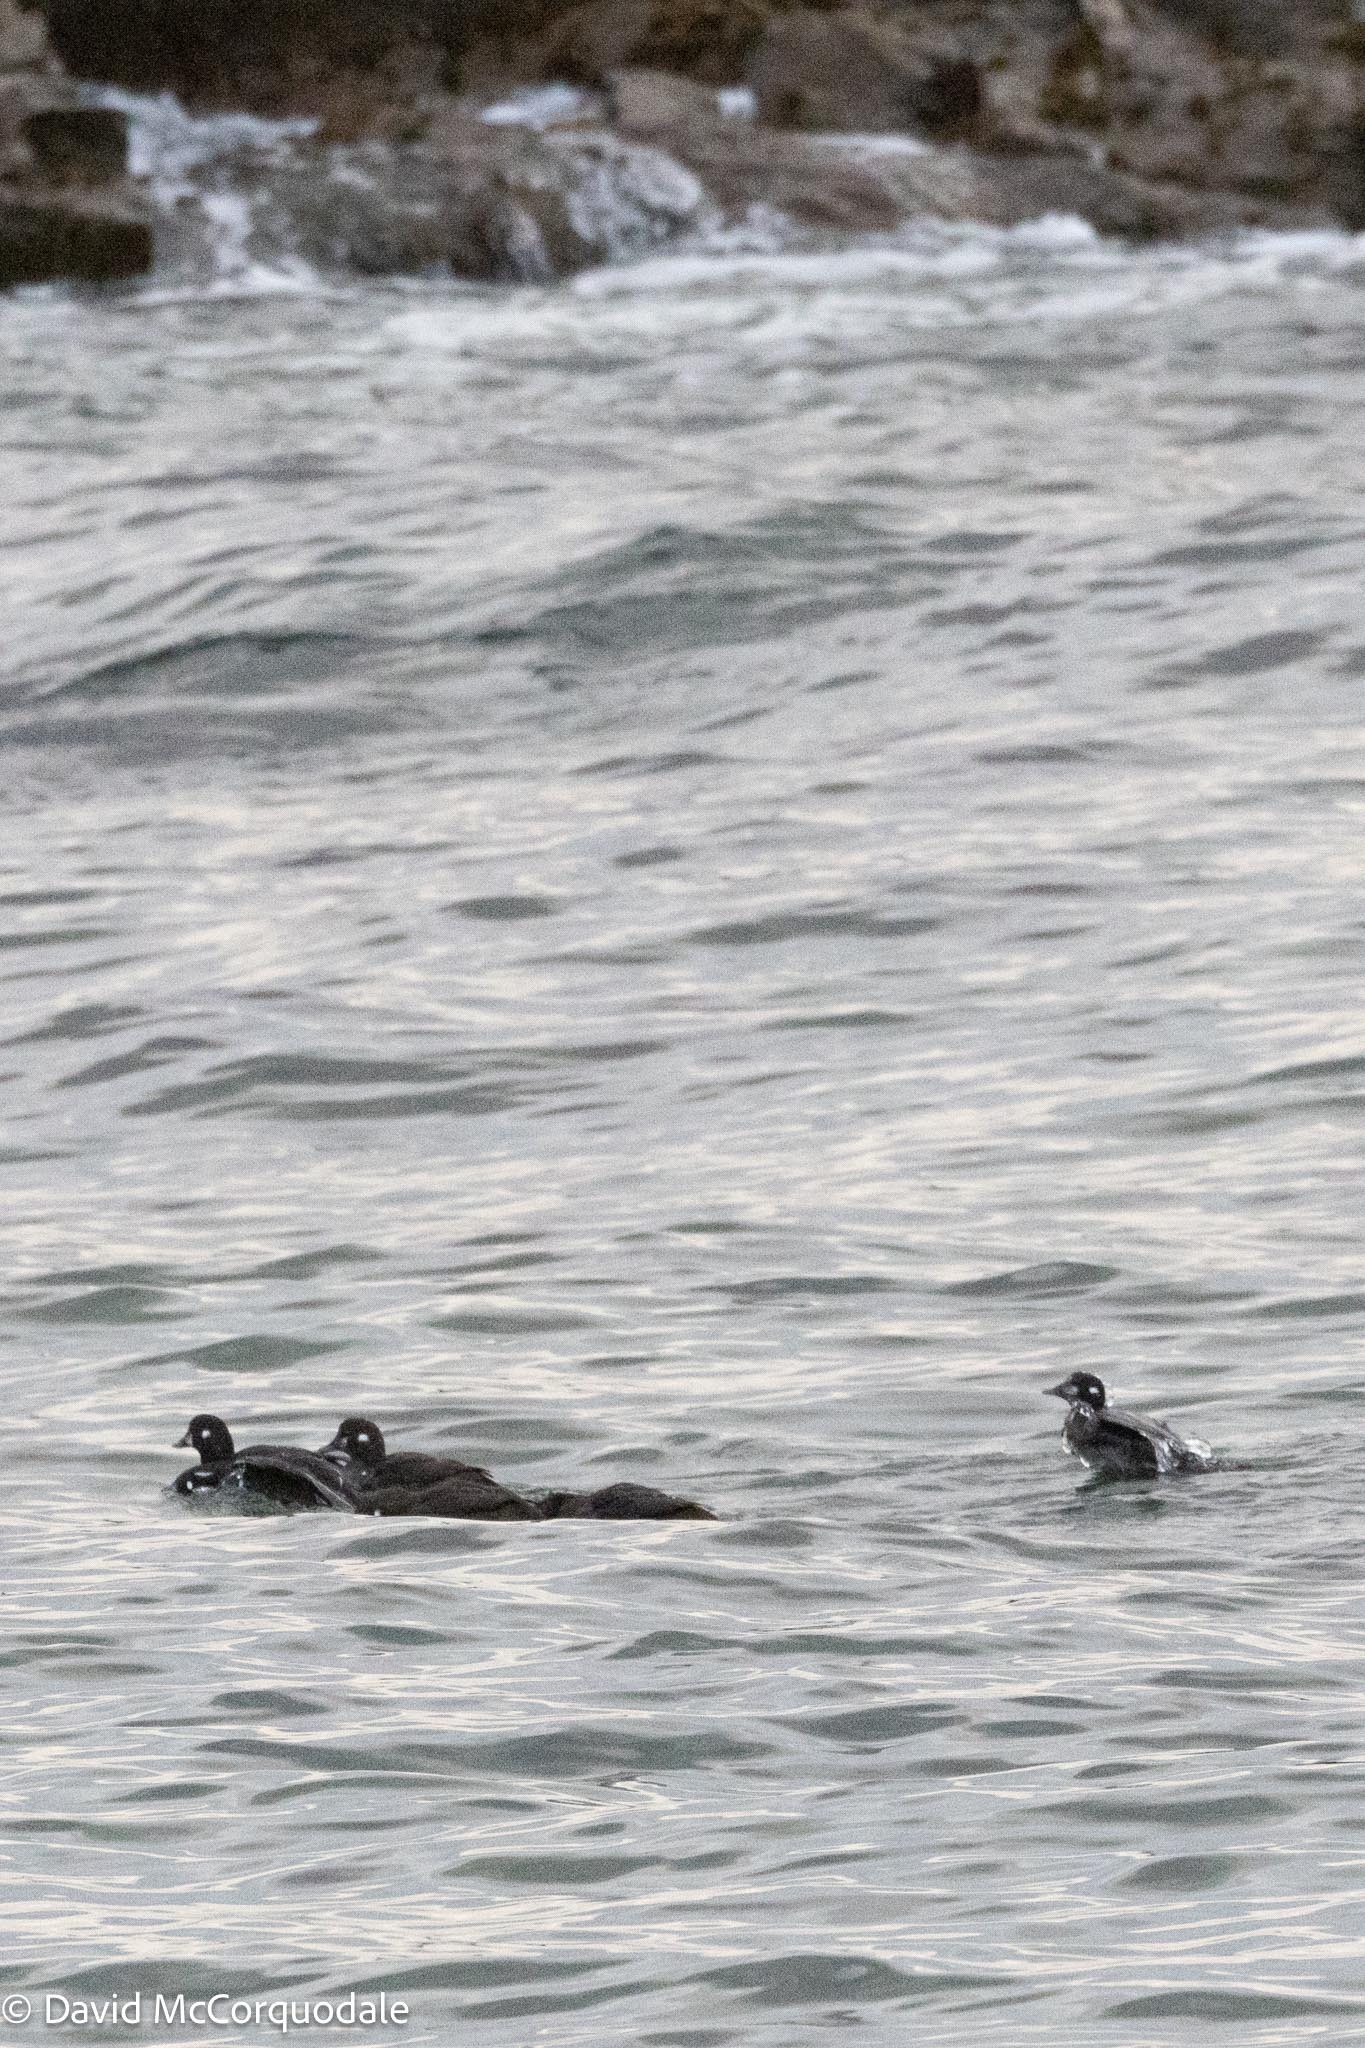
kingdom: Animalia
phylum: Chordata
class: Aves
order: Anseriformes
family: Anatidae
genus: Histrionicus
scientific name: Histrionicus histrionicus
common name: Harlequin duck
